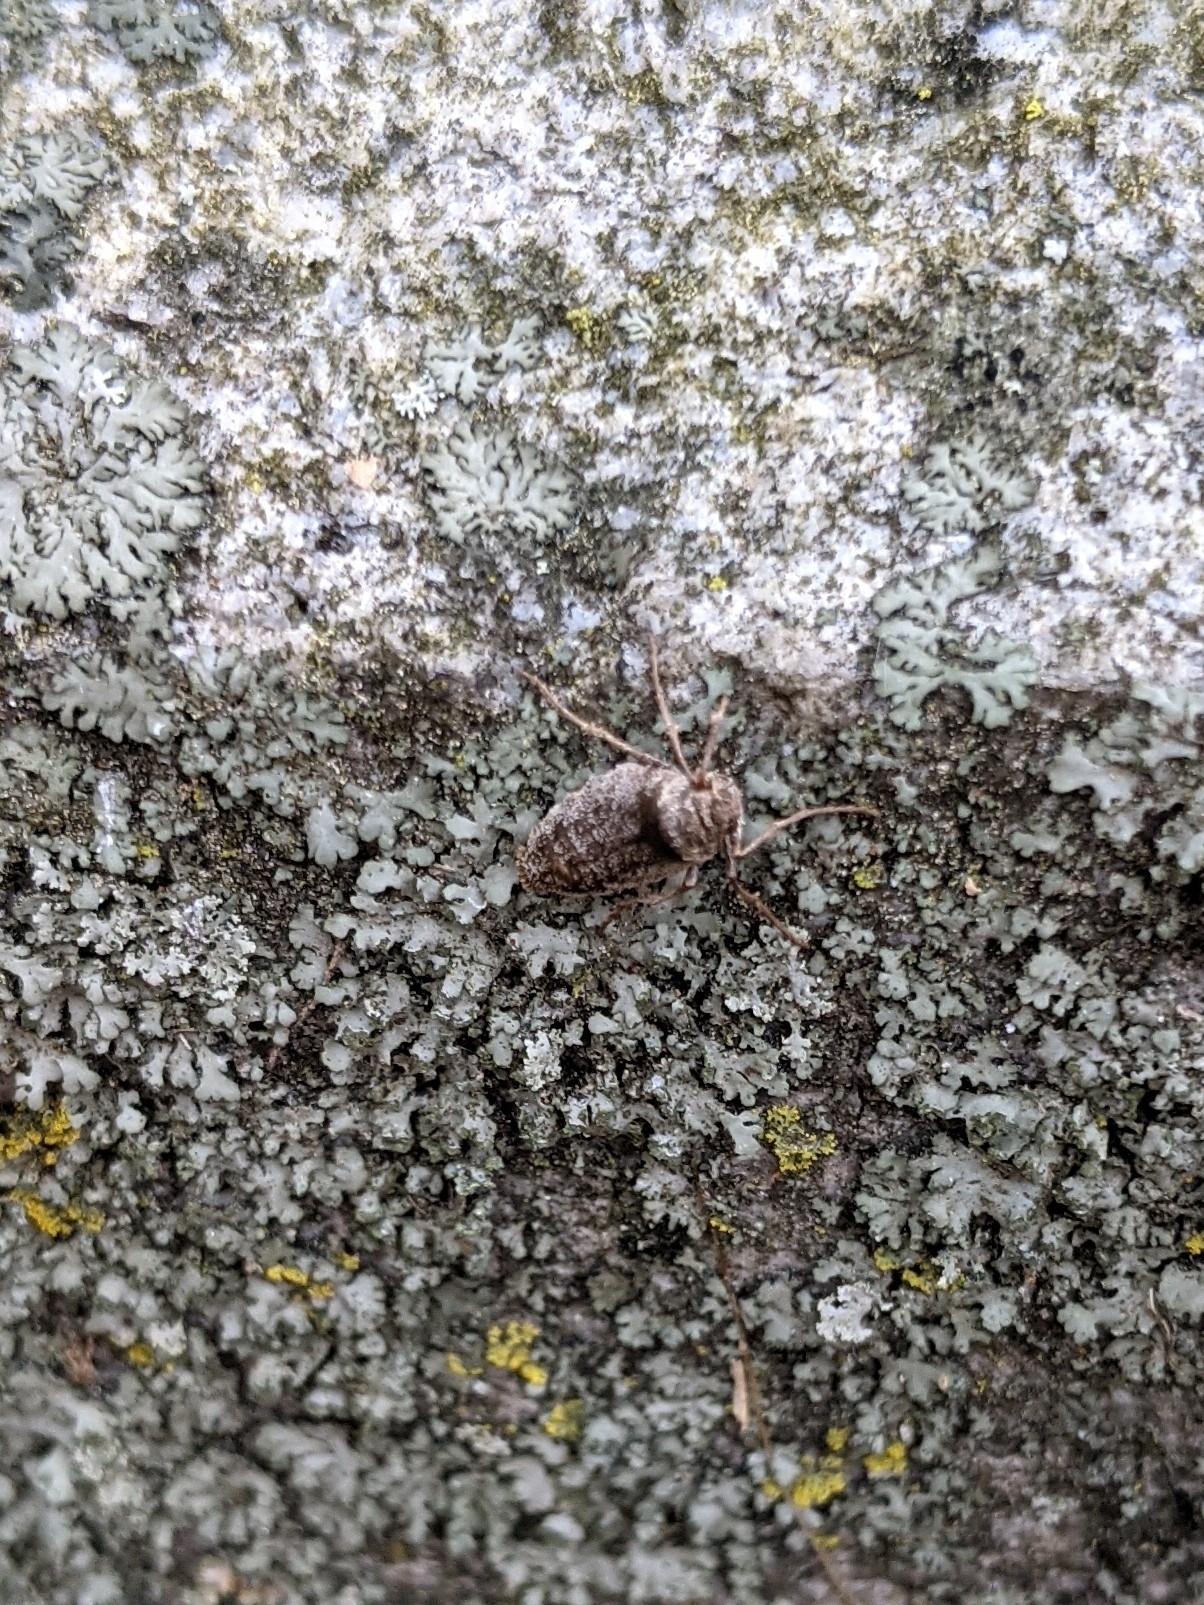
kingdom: Animalia
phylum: Arthropoda
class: Insecta
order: Lepidoptera
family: Geometridae
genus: Alsophila
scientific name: Alsophila pometaria
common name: Fall cankerworm
